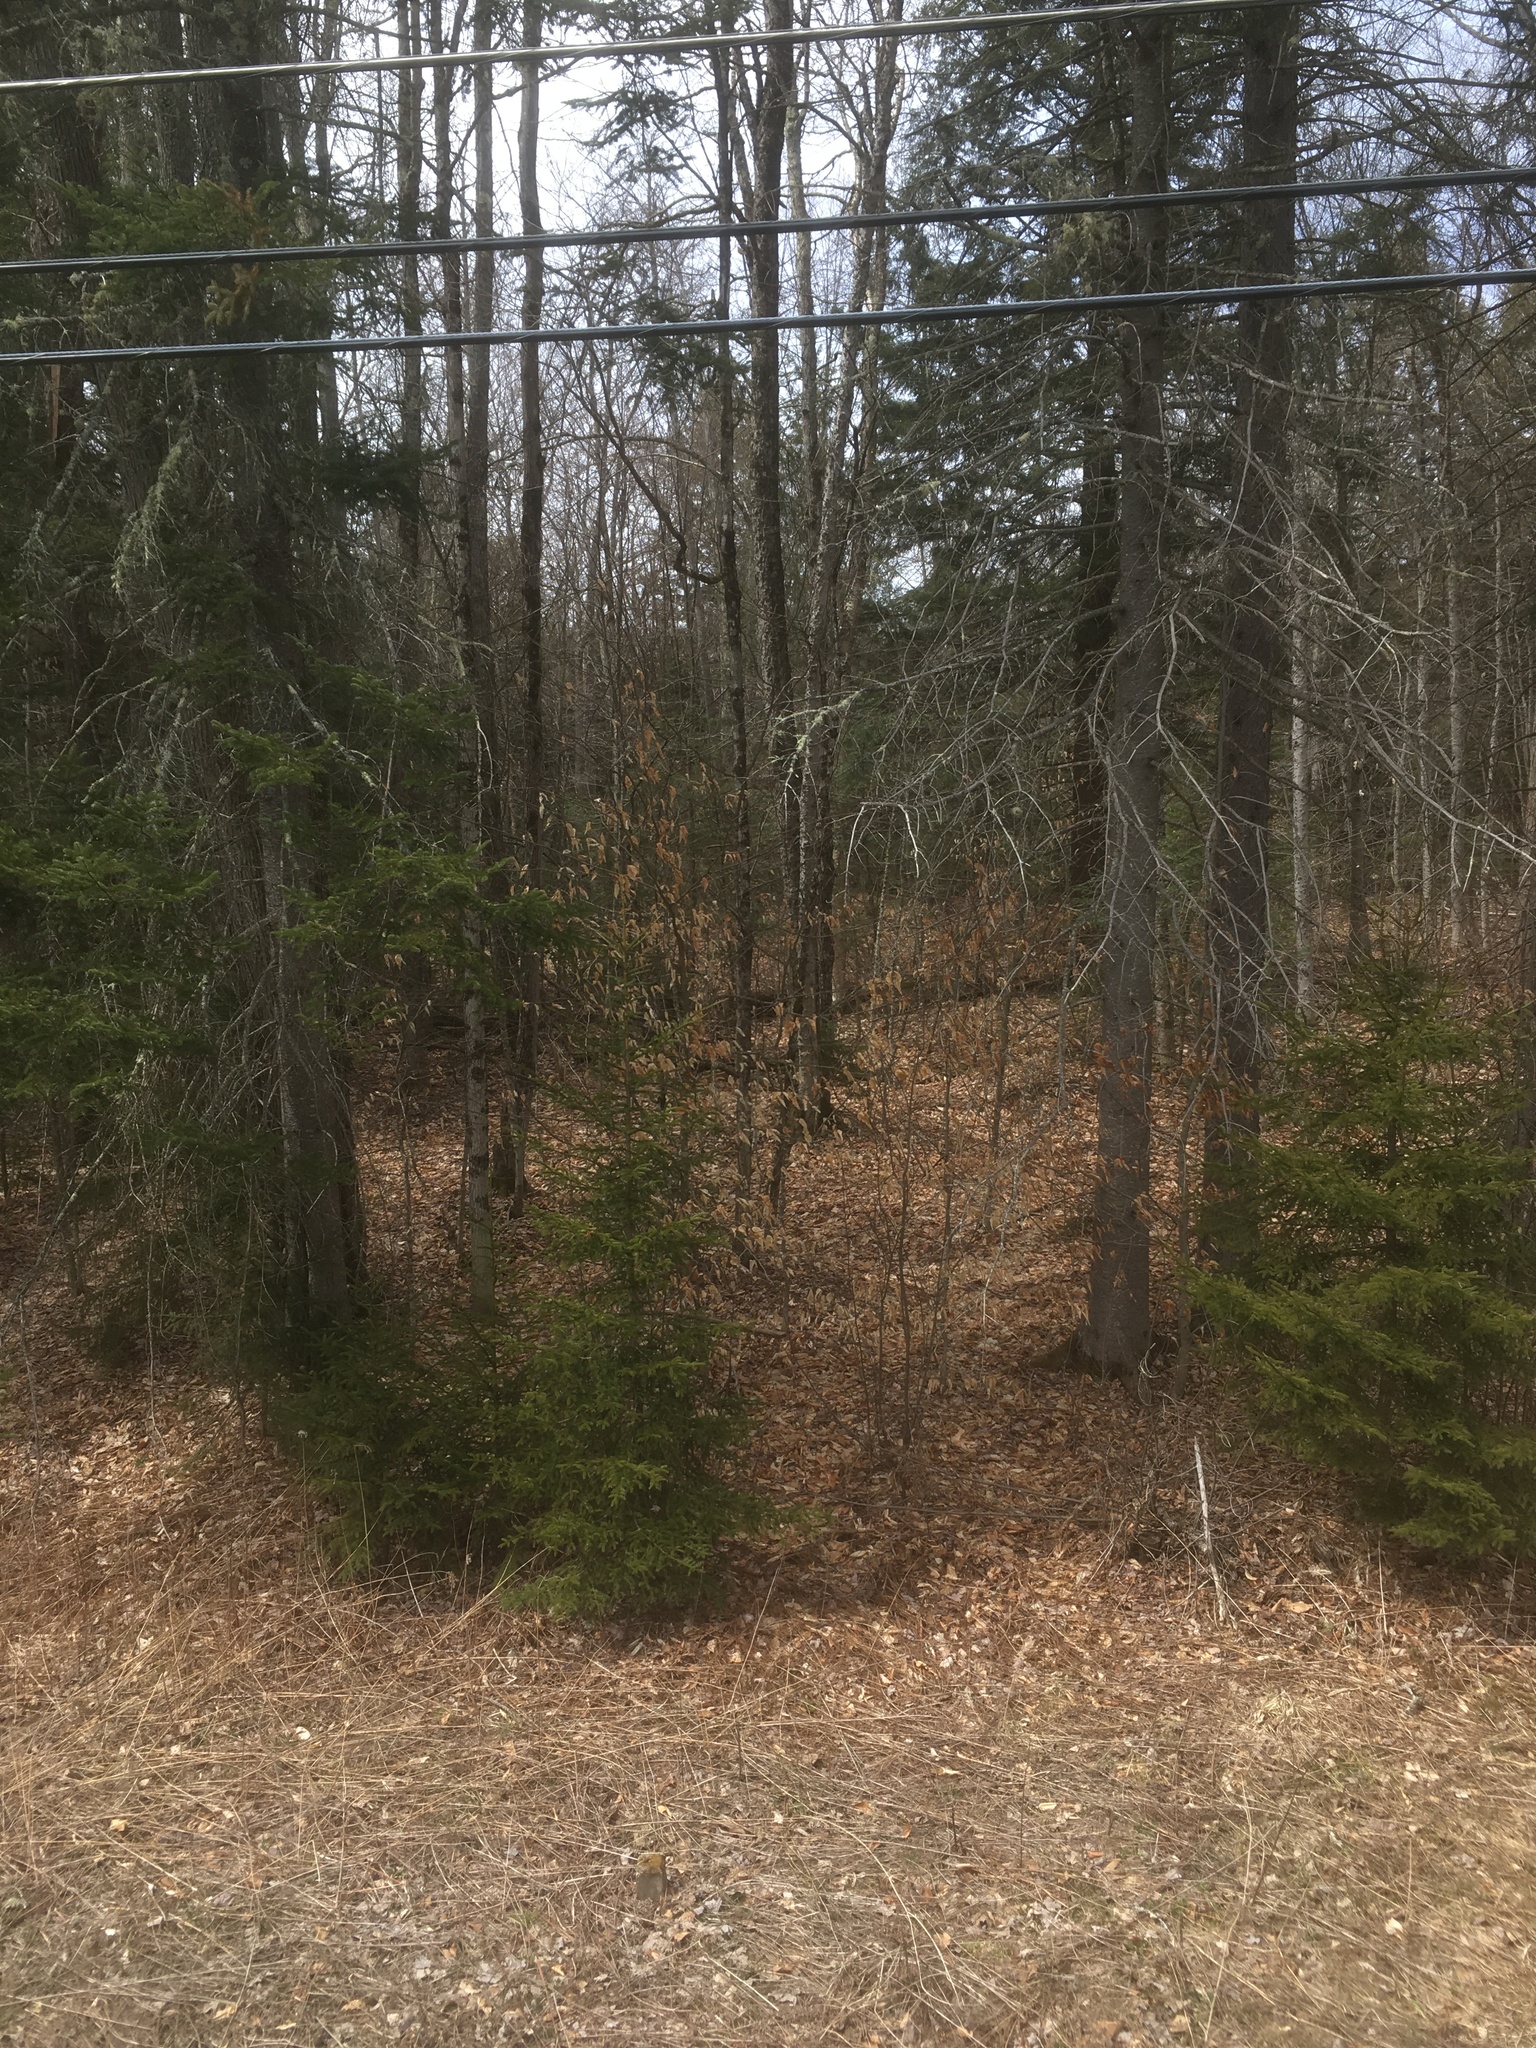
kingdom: Plantae
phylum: Tracheophyta
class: Magnoliopsida
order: Fagales
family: Fagaceae
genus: Fagus
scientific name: Fagus grandifolia
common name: American beech
